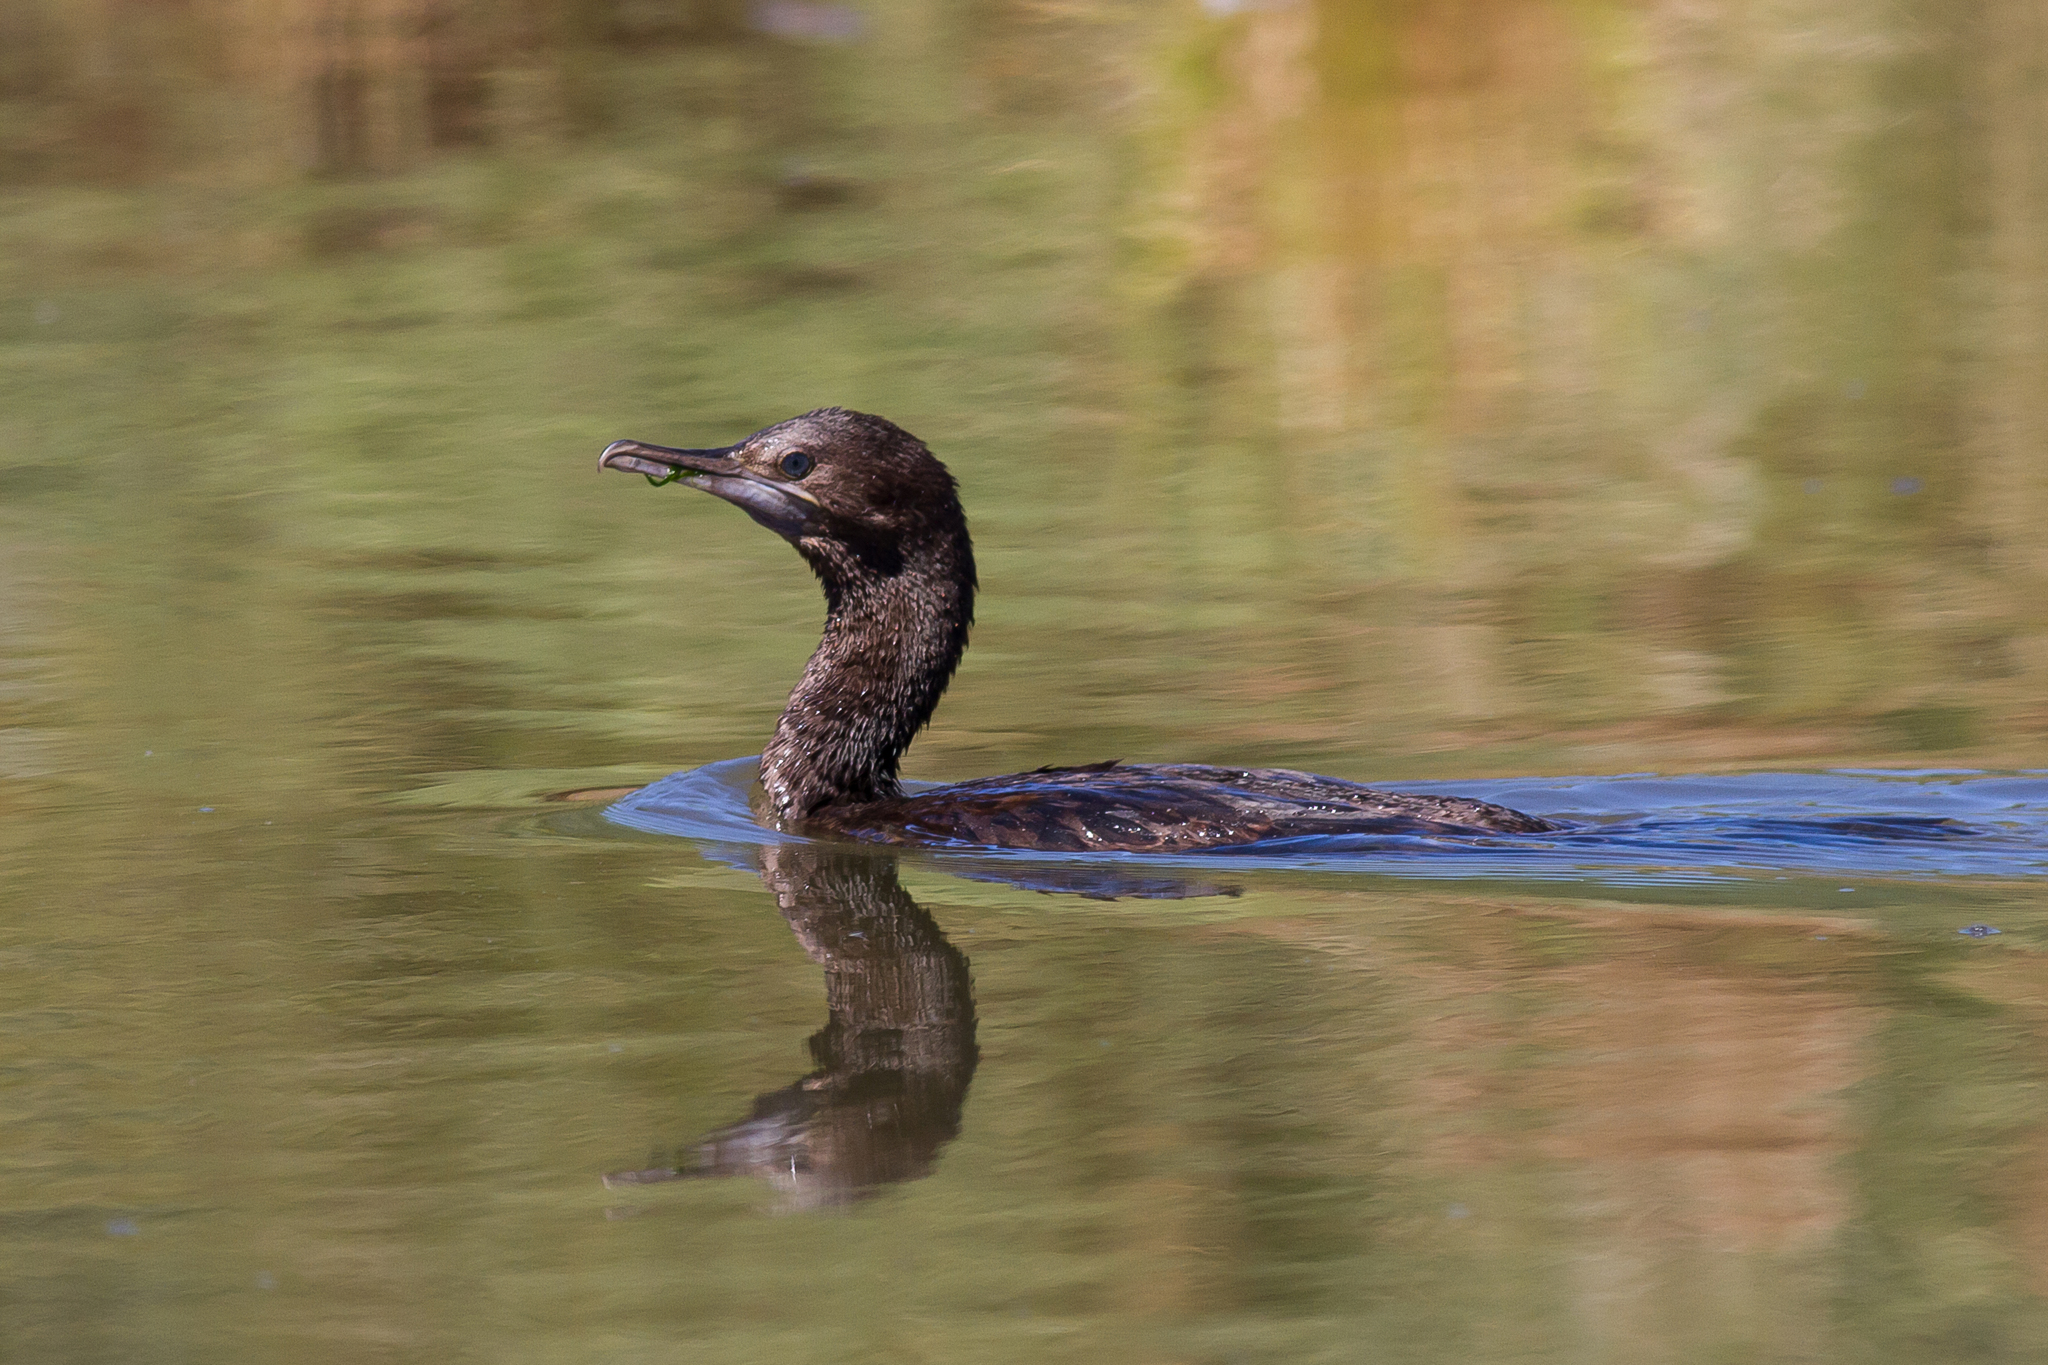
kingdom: Animalia
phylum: Chordata
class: Aves
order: Suliformes
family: Phalacrocoracidae
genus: Phalacrocorax
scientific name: Phalacrocorax sulcirostris
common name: Little black cormorant
